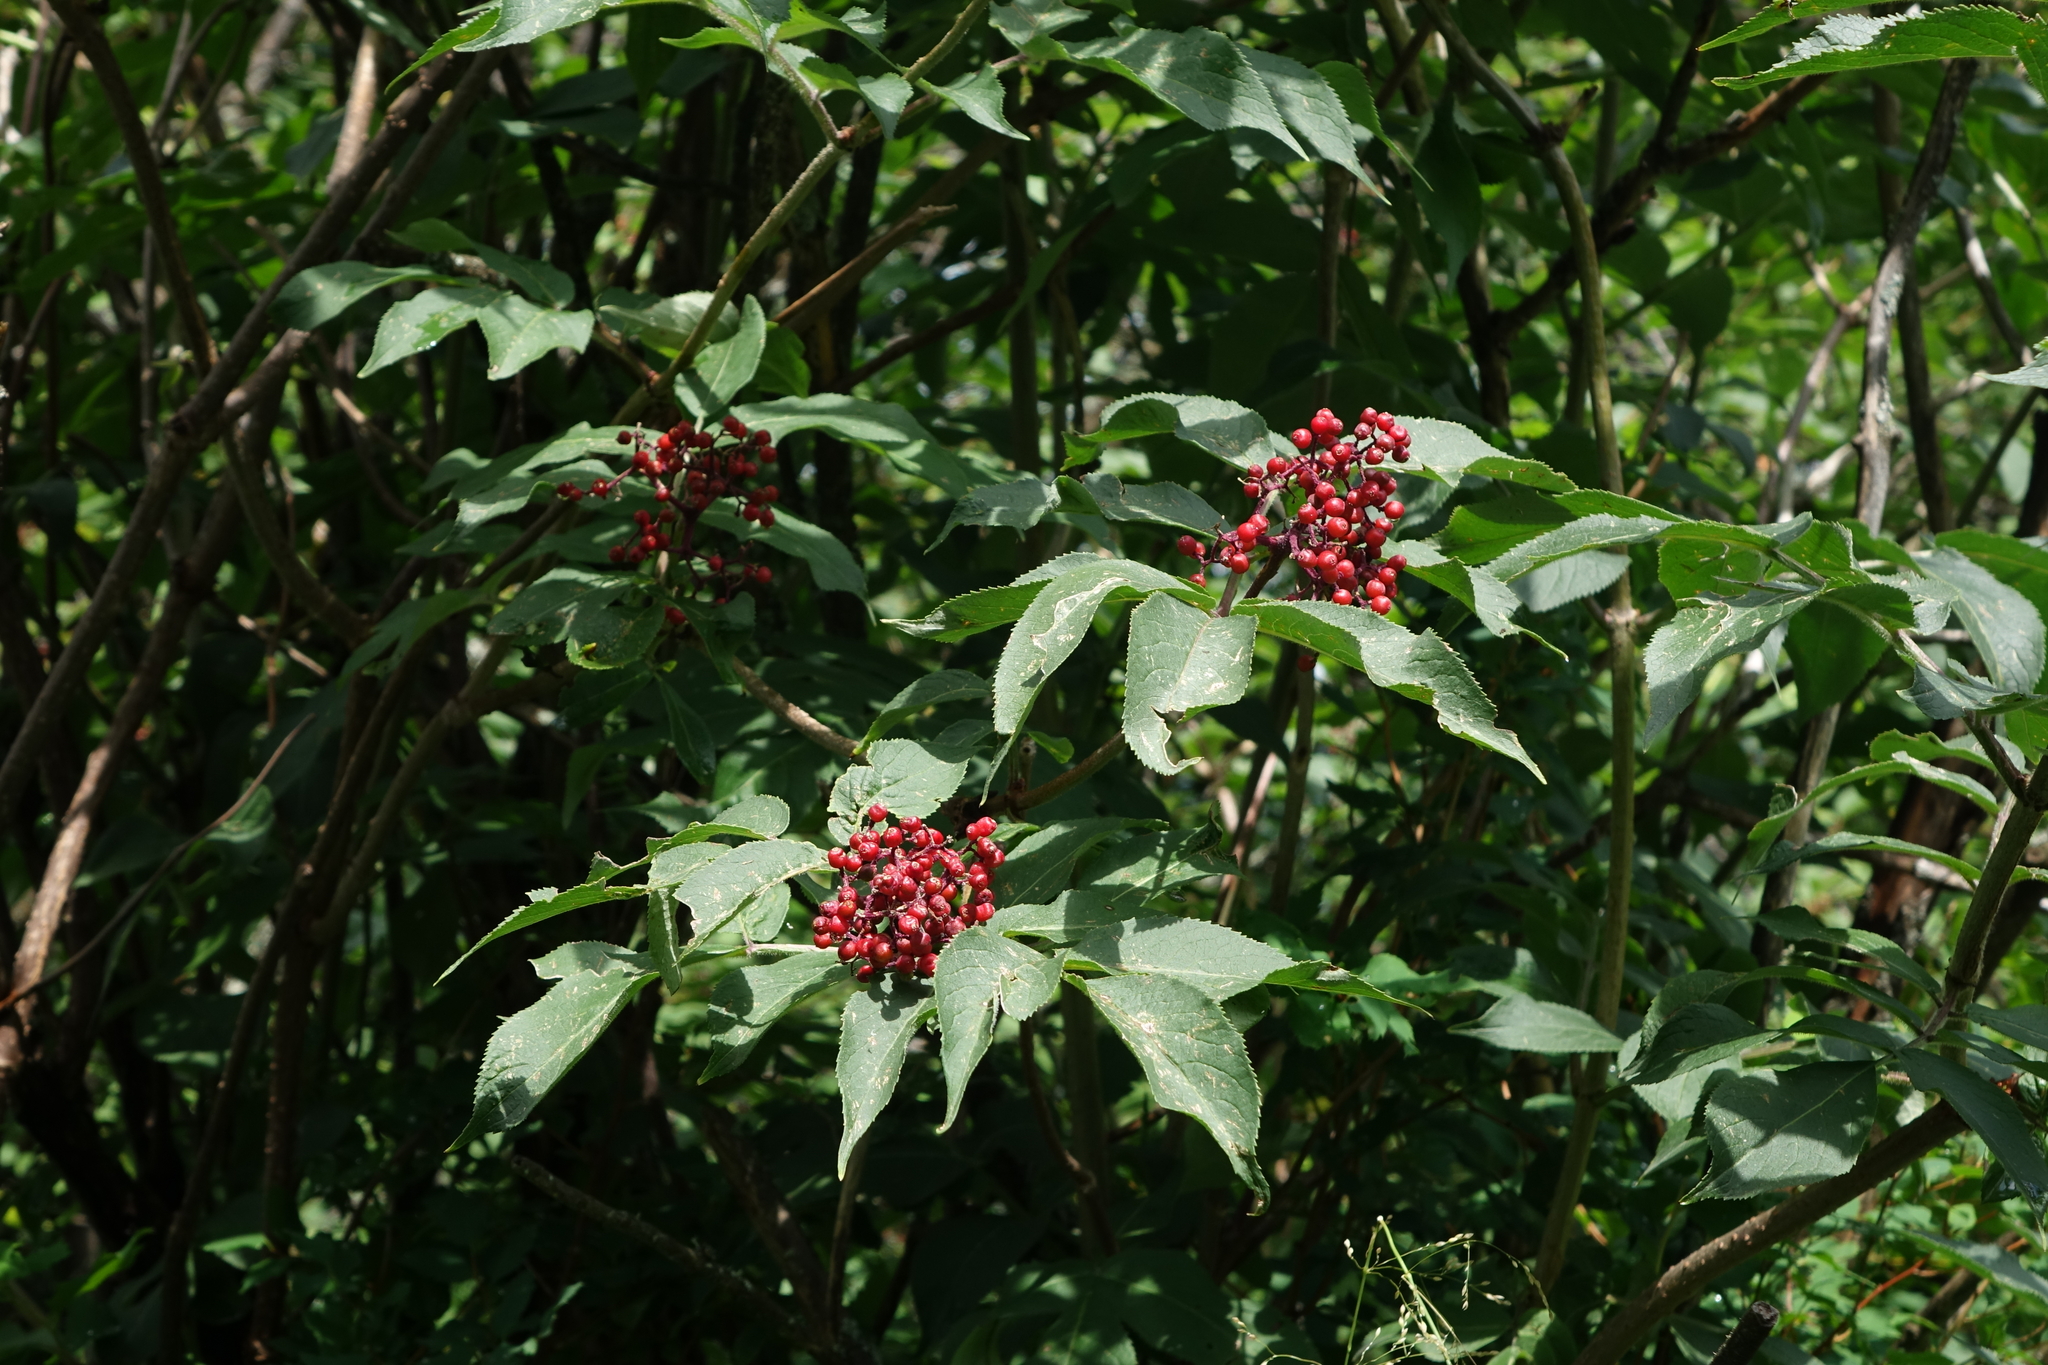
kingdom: Plantae
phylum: Tracheophyta
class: Magnoliopsida
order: Dipsacales
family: Viburnaceae
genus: Sambucus
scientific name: Sambucus sibirica
